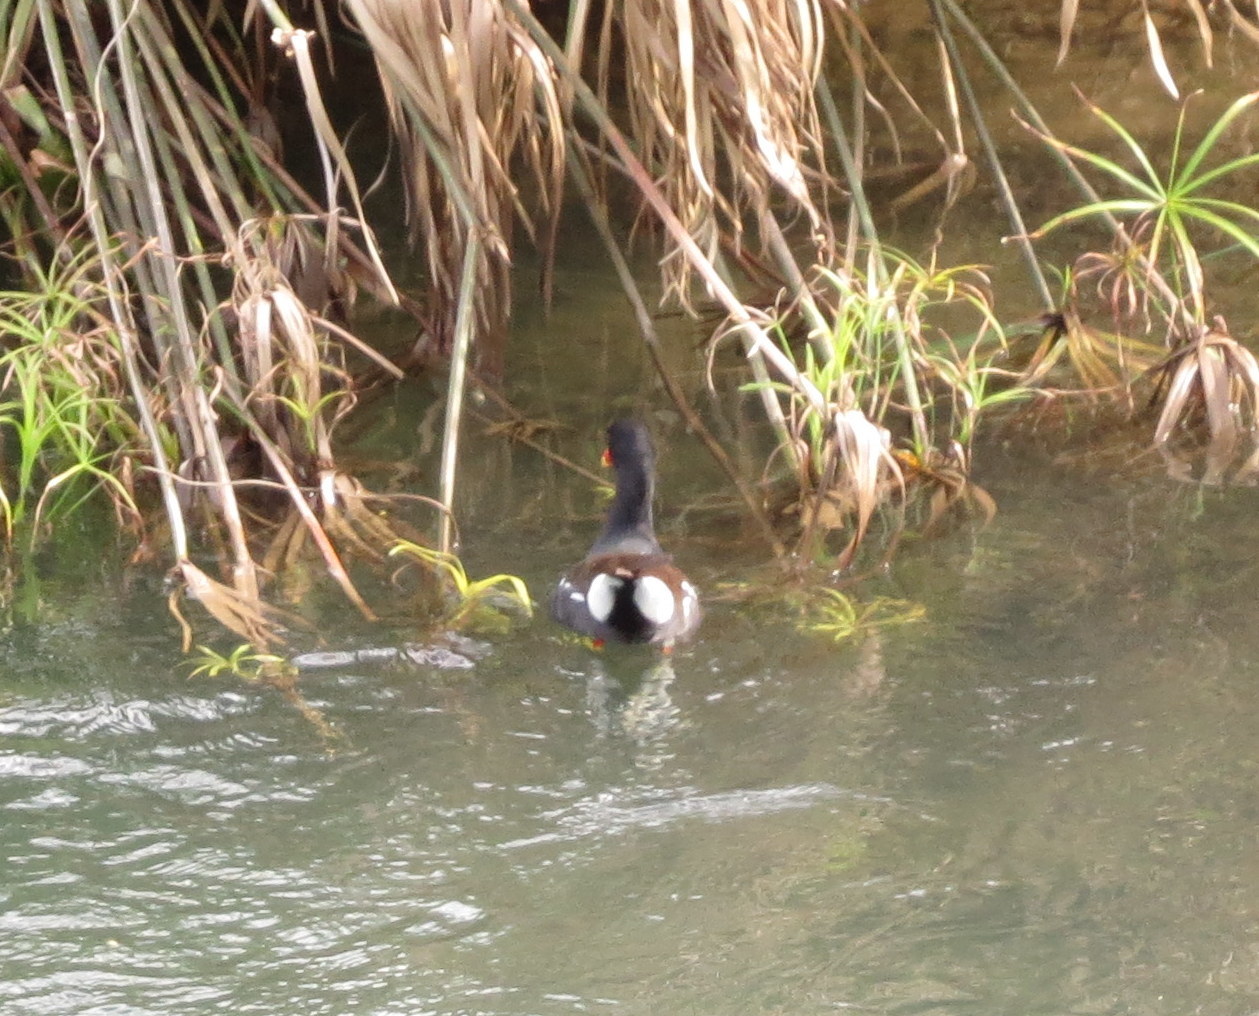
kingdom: Animalia
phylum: Chordata
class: Aves
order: Gruiformes
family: Rallidae
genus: Gallinula
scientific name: Gallinula chloropus
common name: Common moorhen
